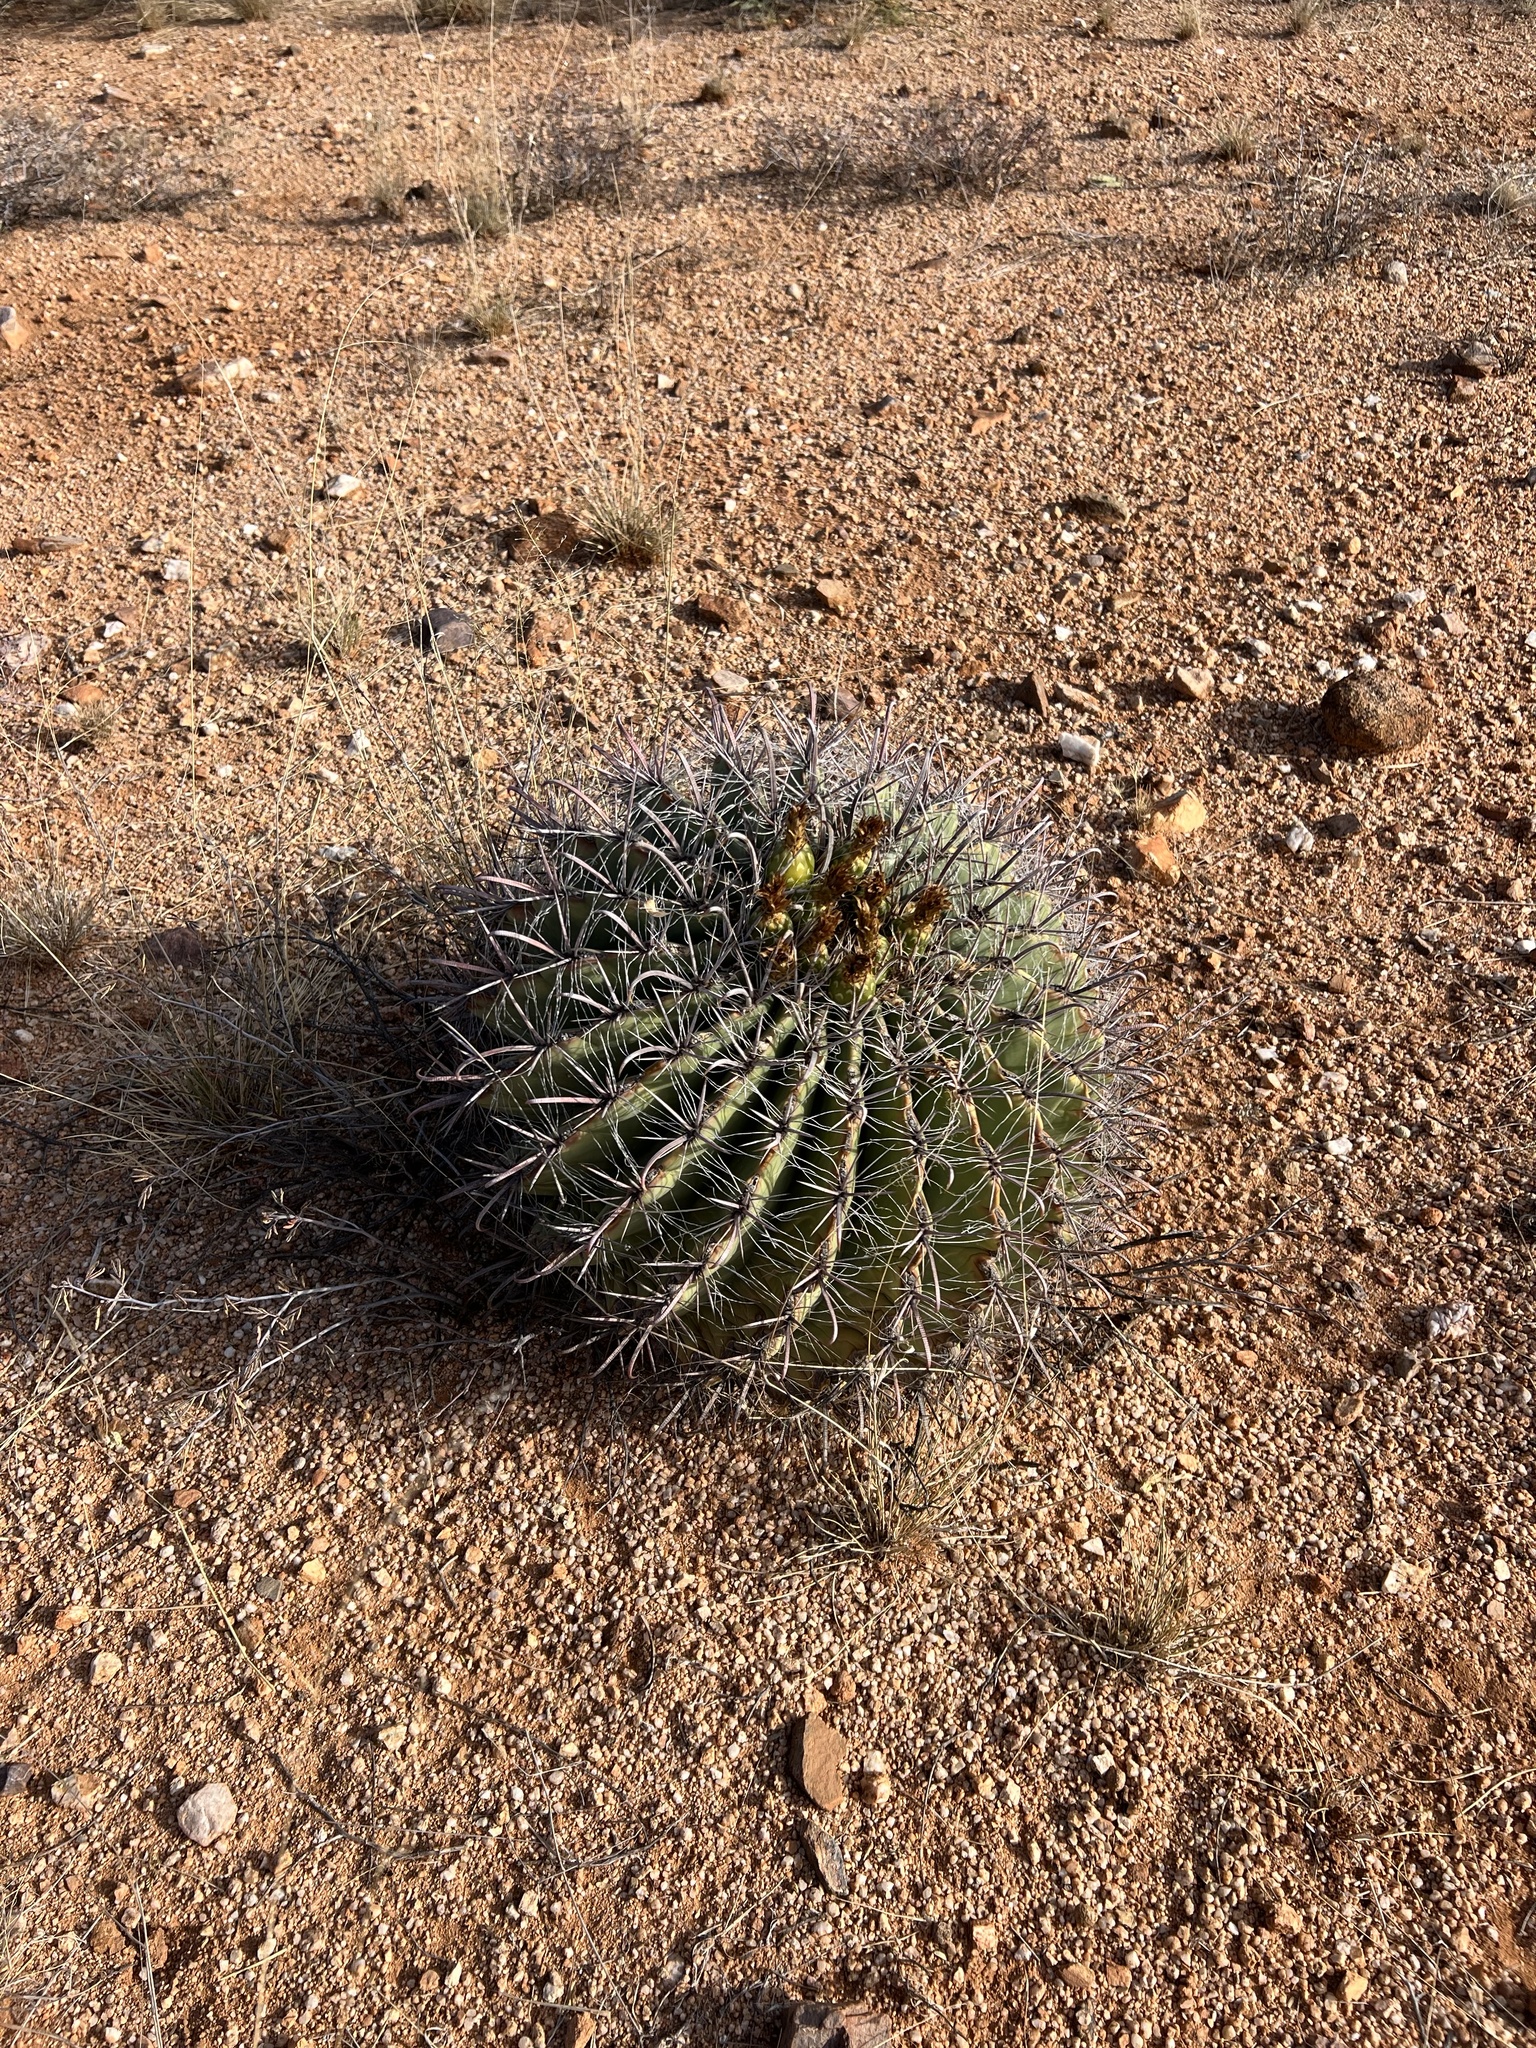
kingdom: Plantae
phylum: Tracheophyta
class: Magnoliopsida
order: Caryophyllales
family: Cactaceae
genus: Ferocactus
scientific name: Ferocactus wislizeni
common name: Candy barrel cactus
